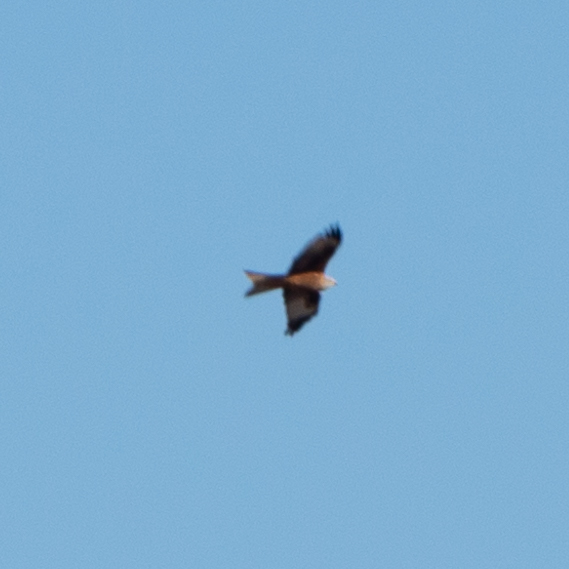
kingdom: Animalia
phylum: Chordata
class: Aves
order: Accipitriformes
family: Accipitridae
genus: Milvus
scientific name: Milvus milvus
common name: Red kite
